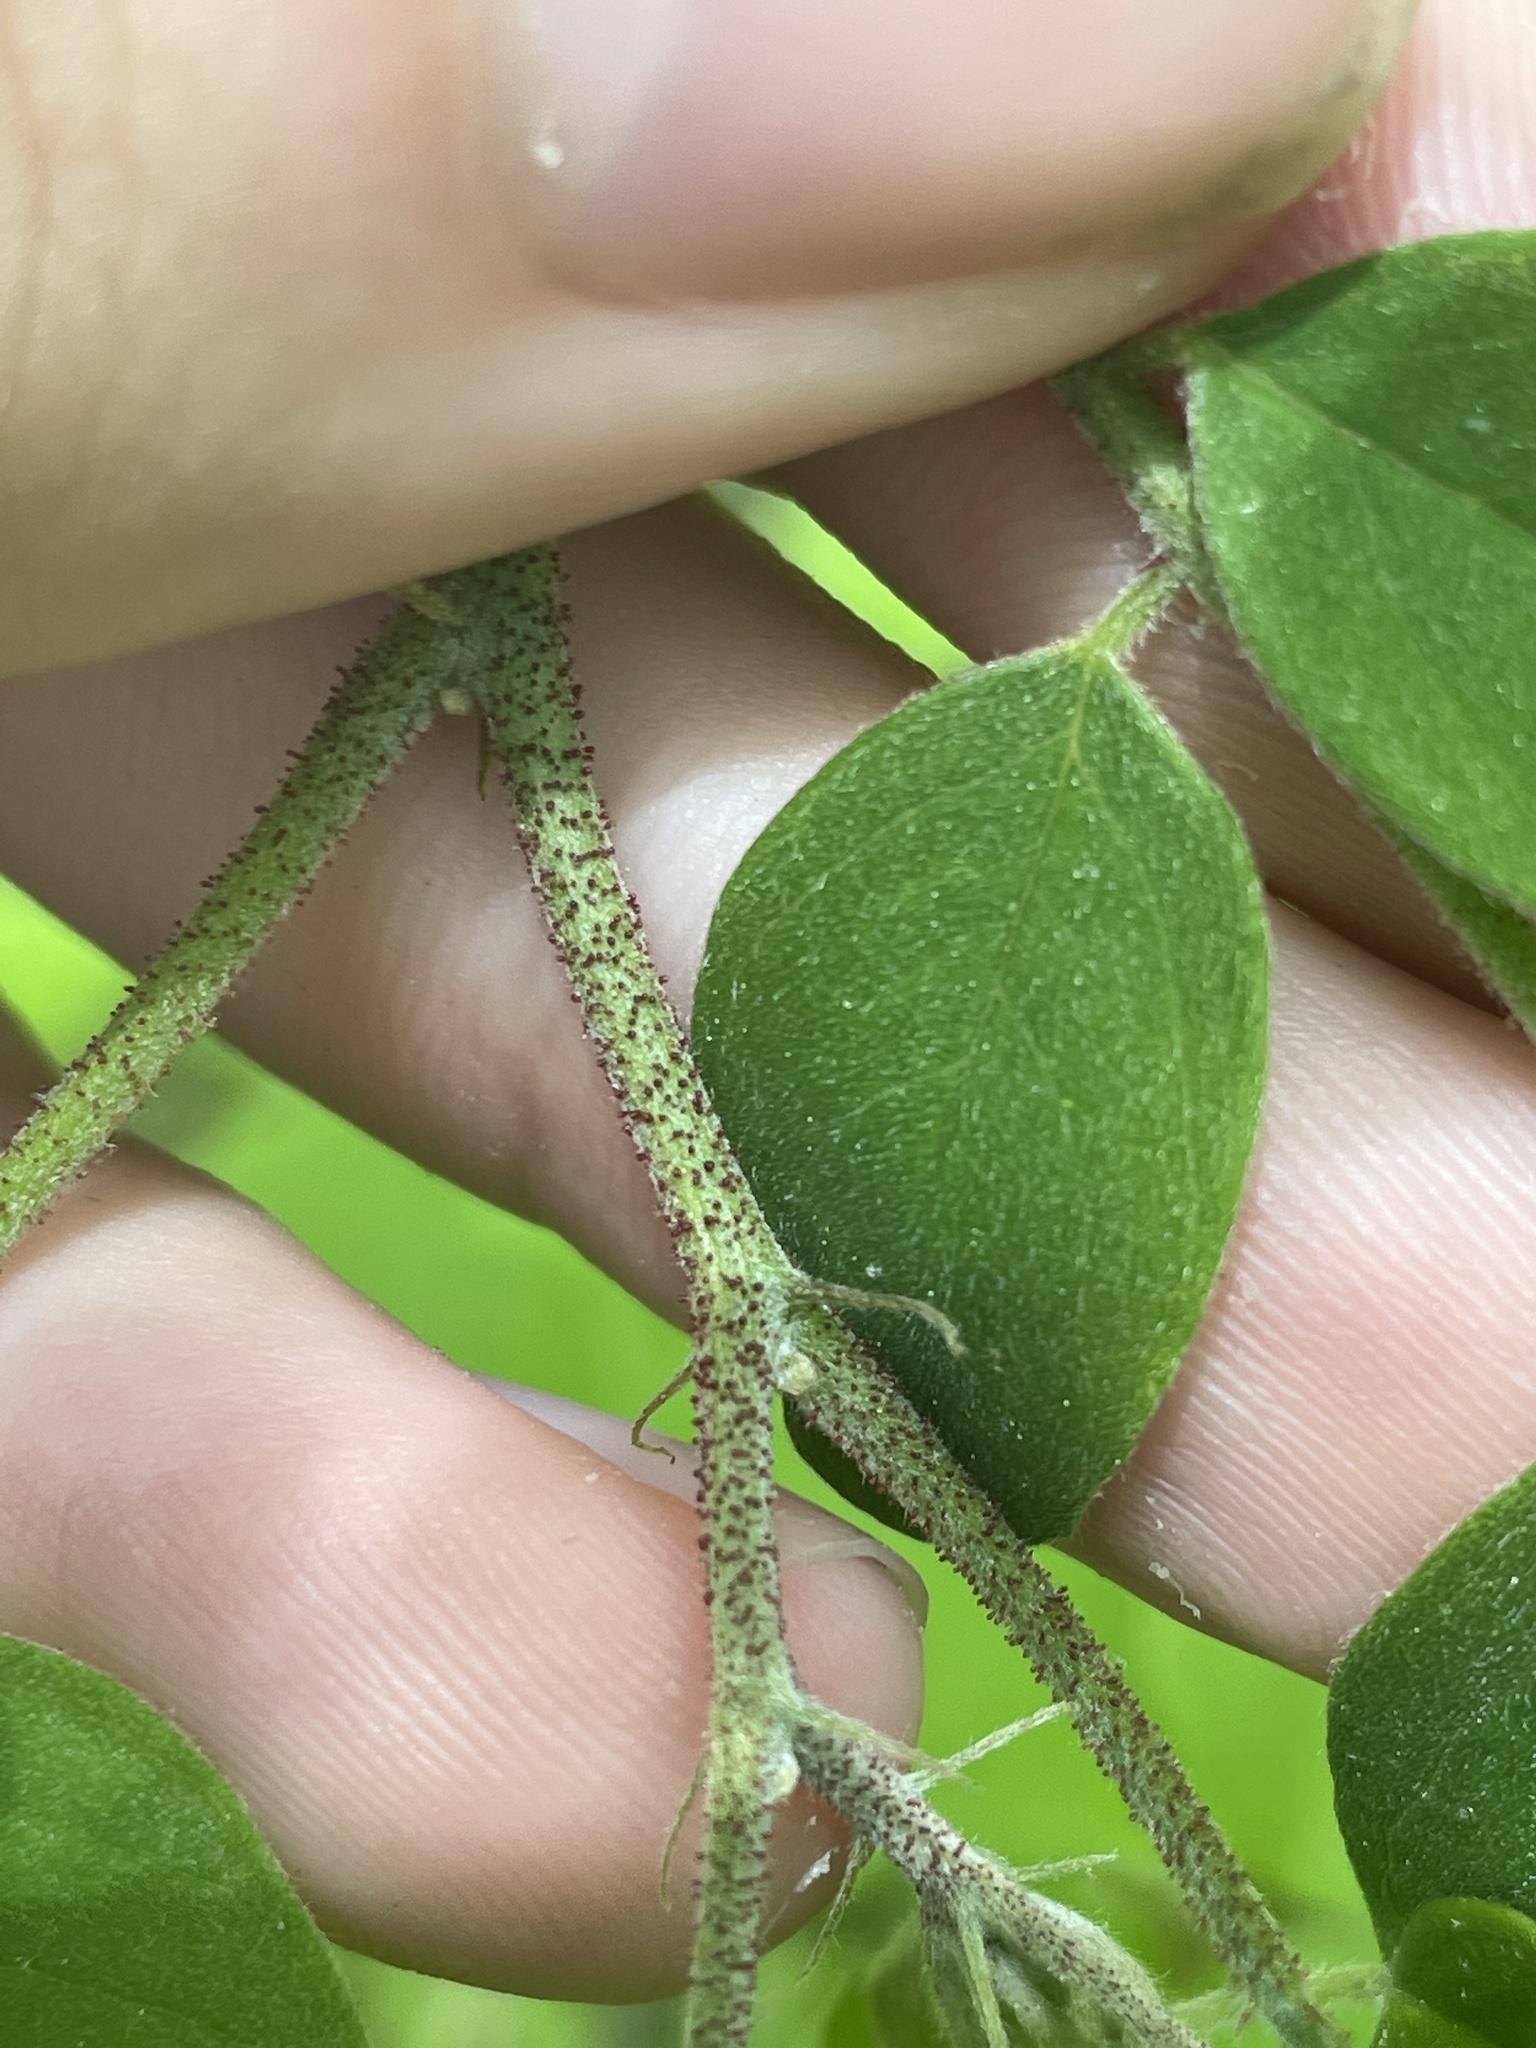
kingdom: Plantae
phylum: Tracheophyta
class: Magnoliopsida
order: Fabales
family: Fabaceae
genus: Robinia
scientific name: Robinia viscosa
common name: Clammy locust
